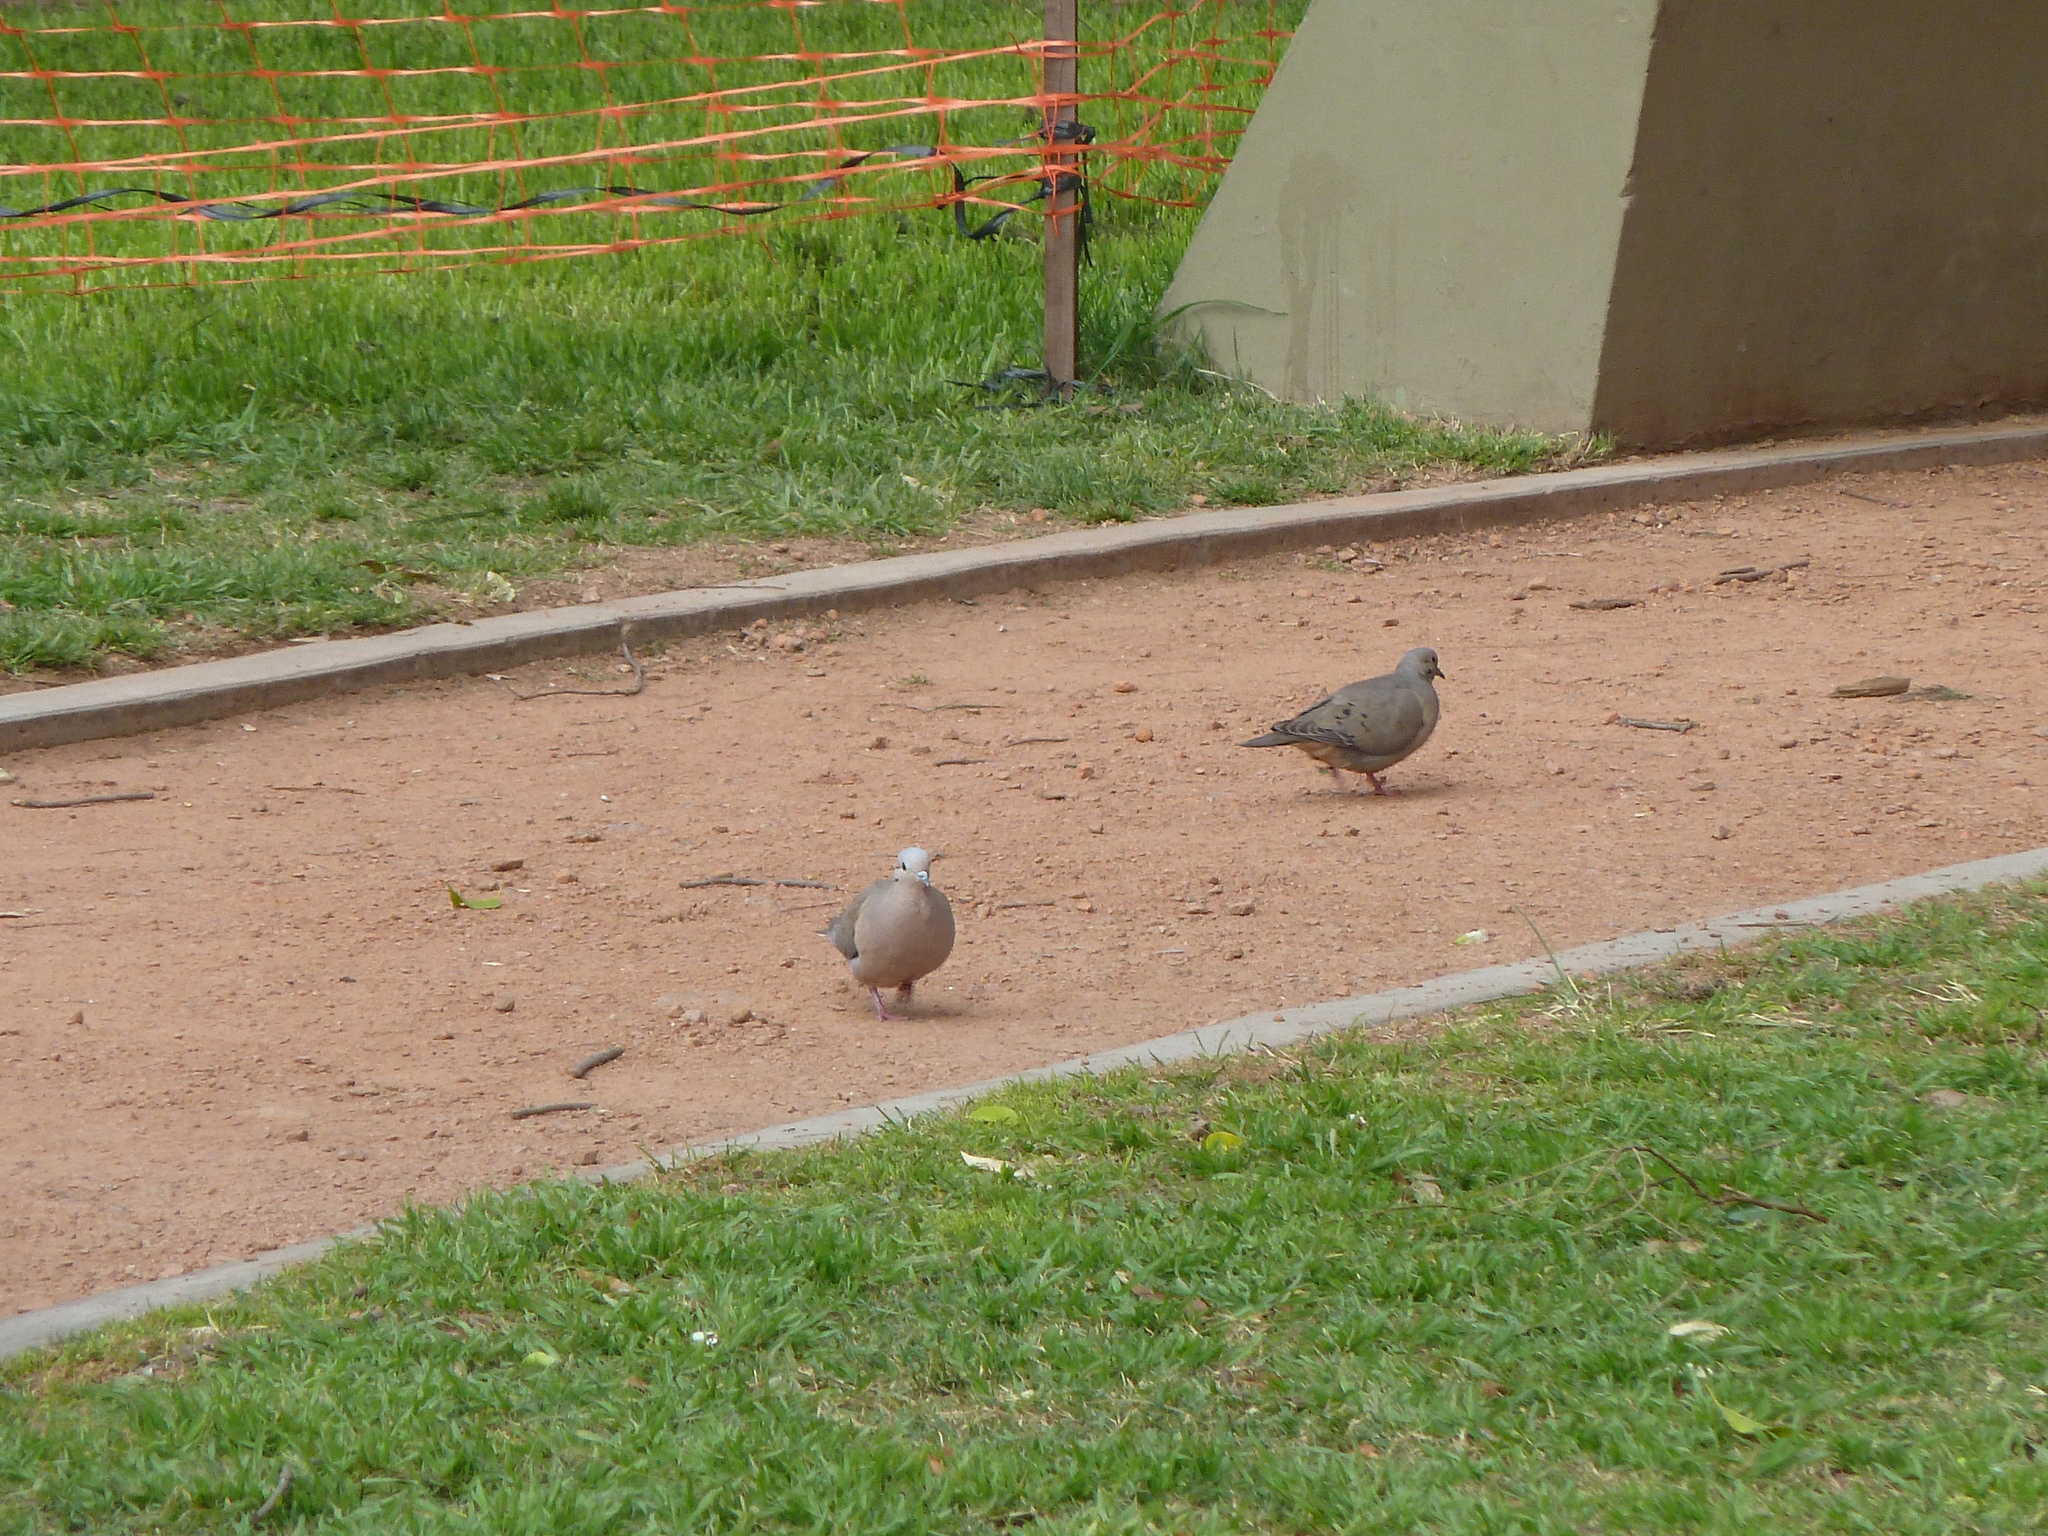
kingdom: Animalia
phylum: Chordata
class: Aves
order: Columbiformes
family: Columbidae
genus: Zenaida
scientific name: Zenaida auriculata
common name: Eared dove
